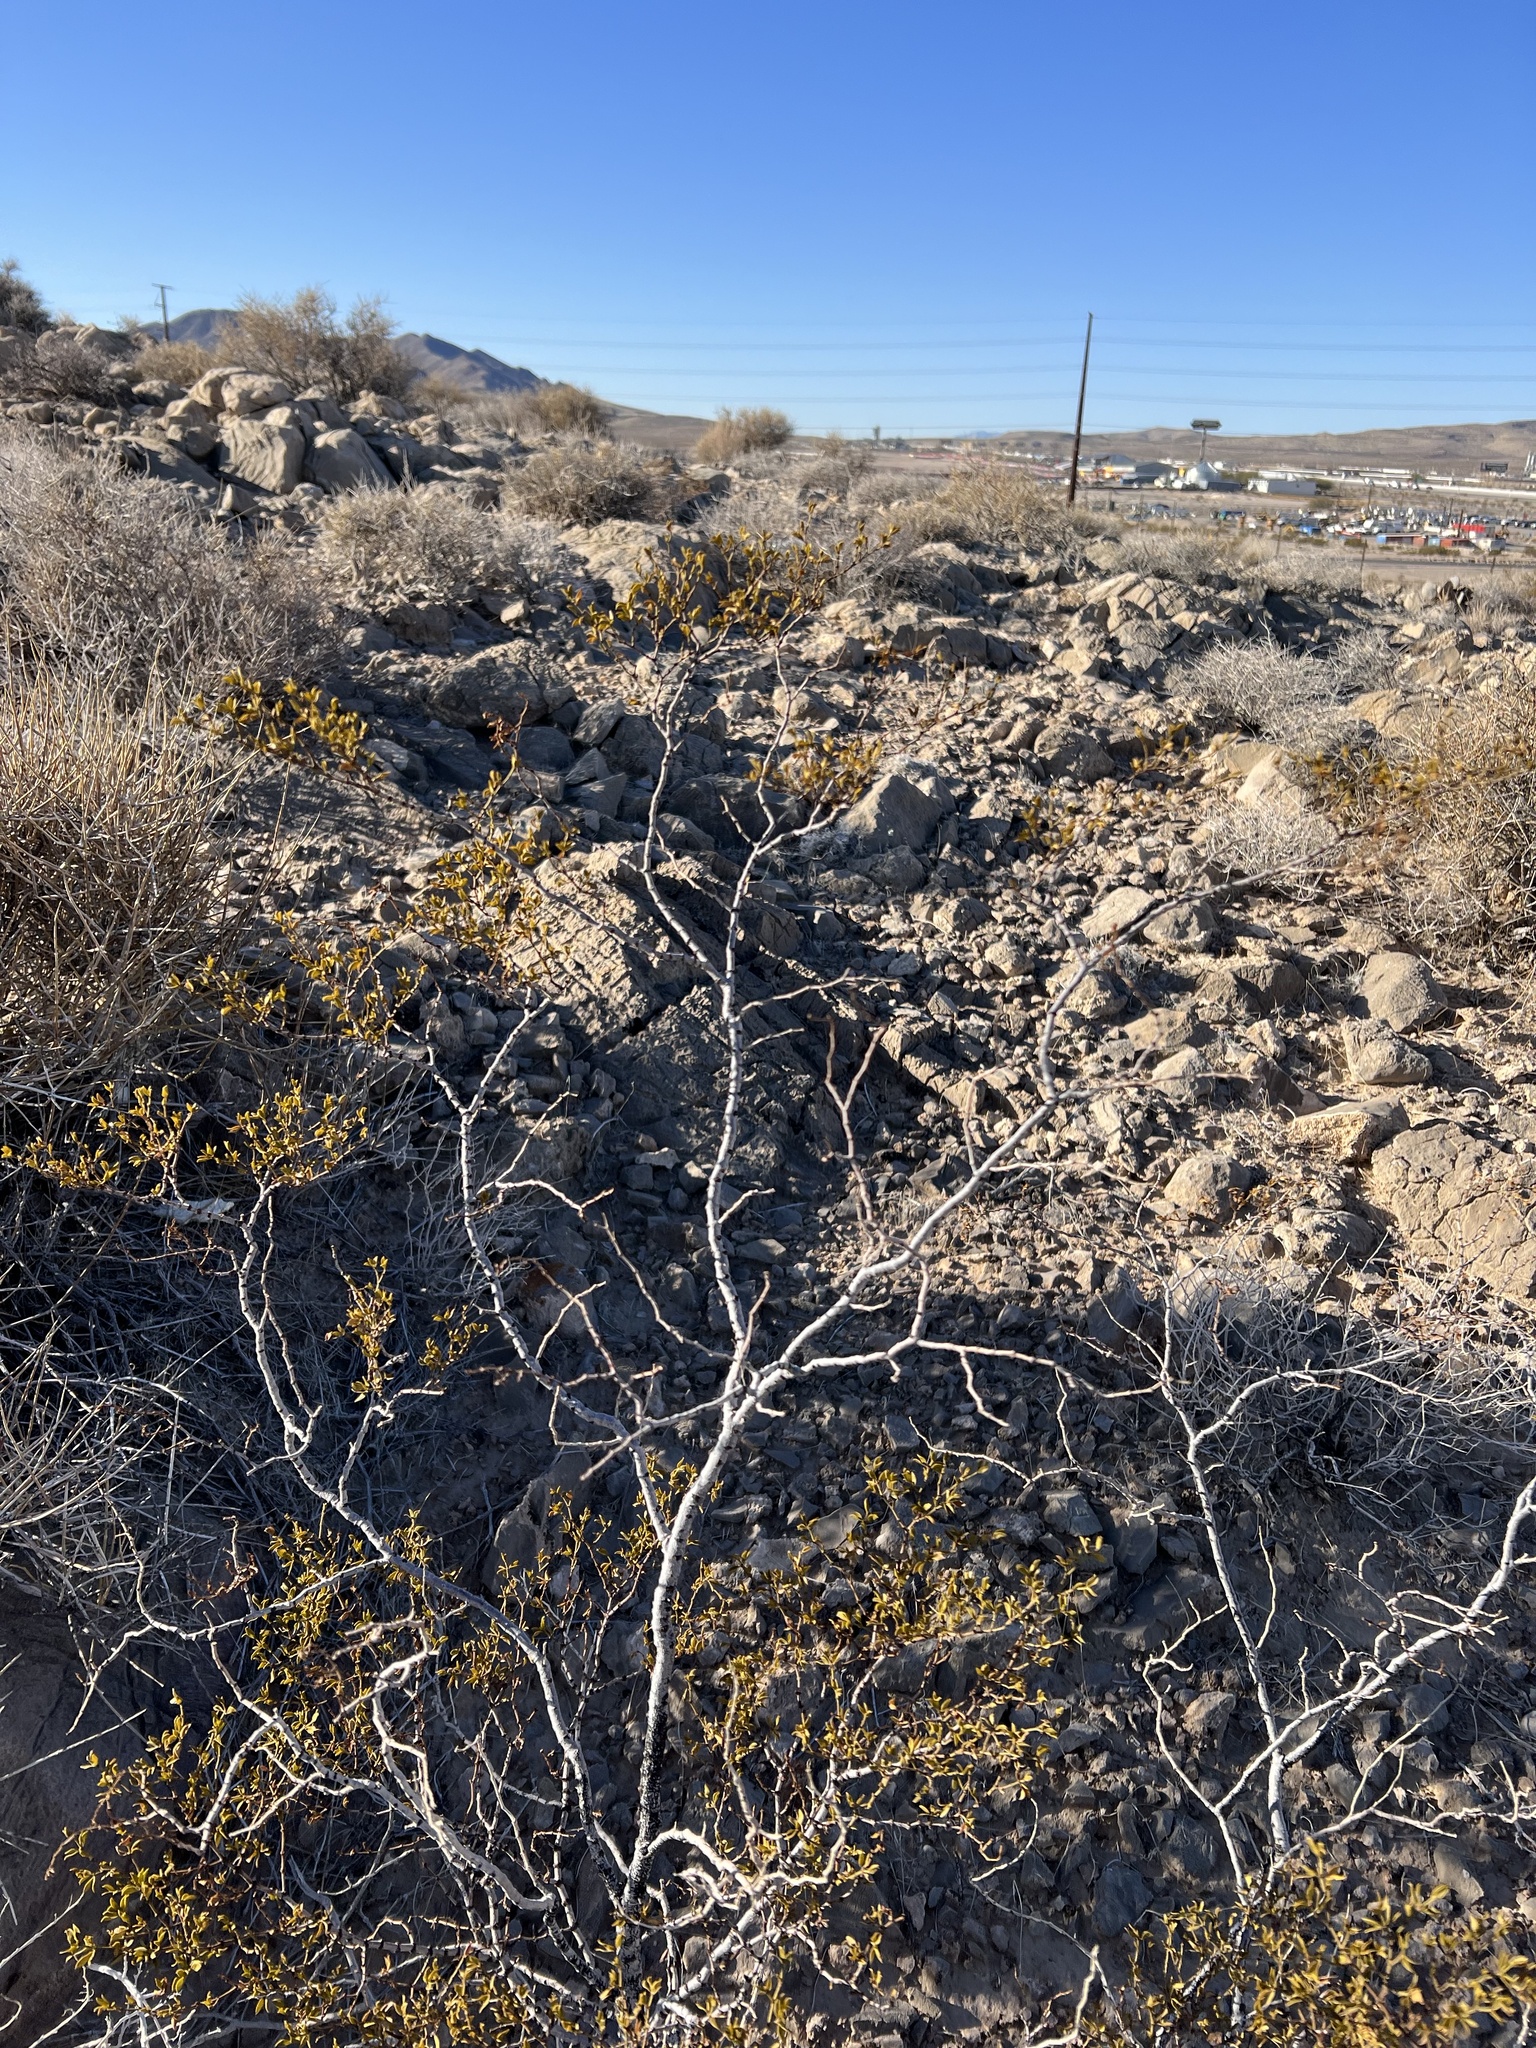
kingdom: Plantae
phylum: Tracheophyta
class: Magnoliopsida
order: Zygophyllales
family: Zygophyllaceae
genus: Larrea
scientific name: Larrea tridentata
